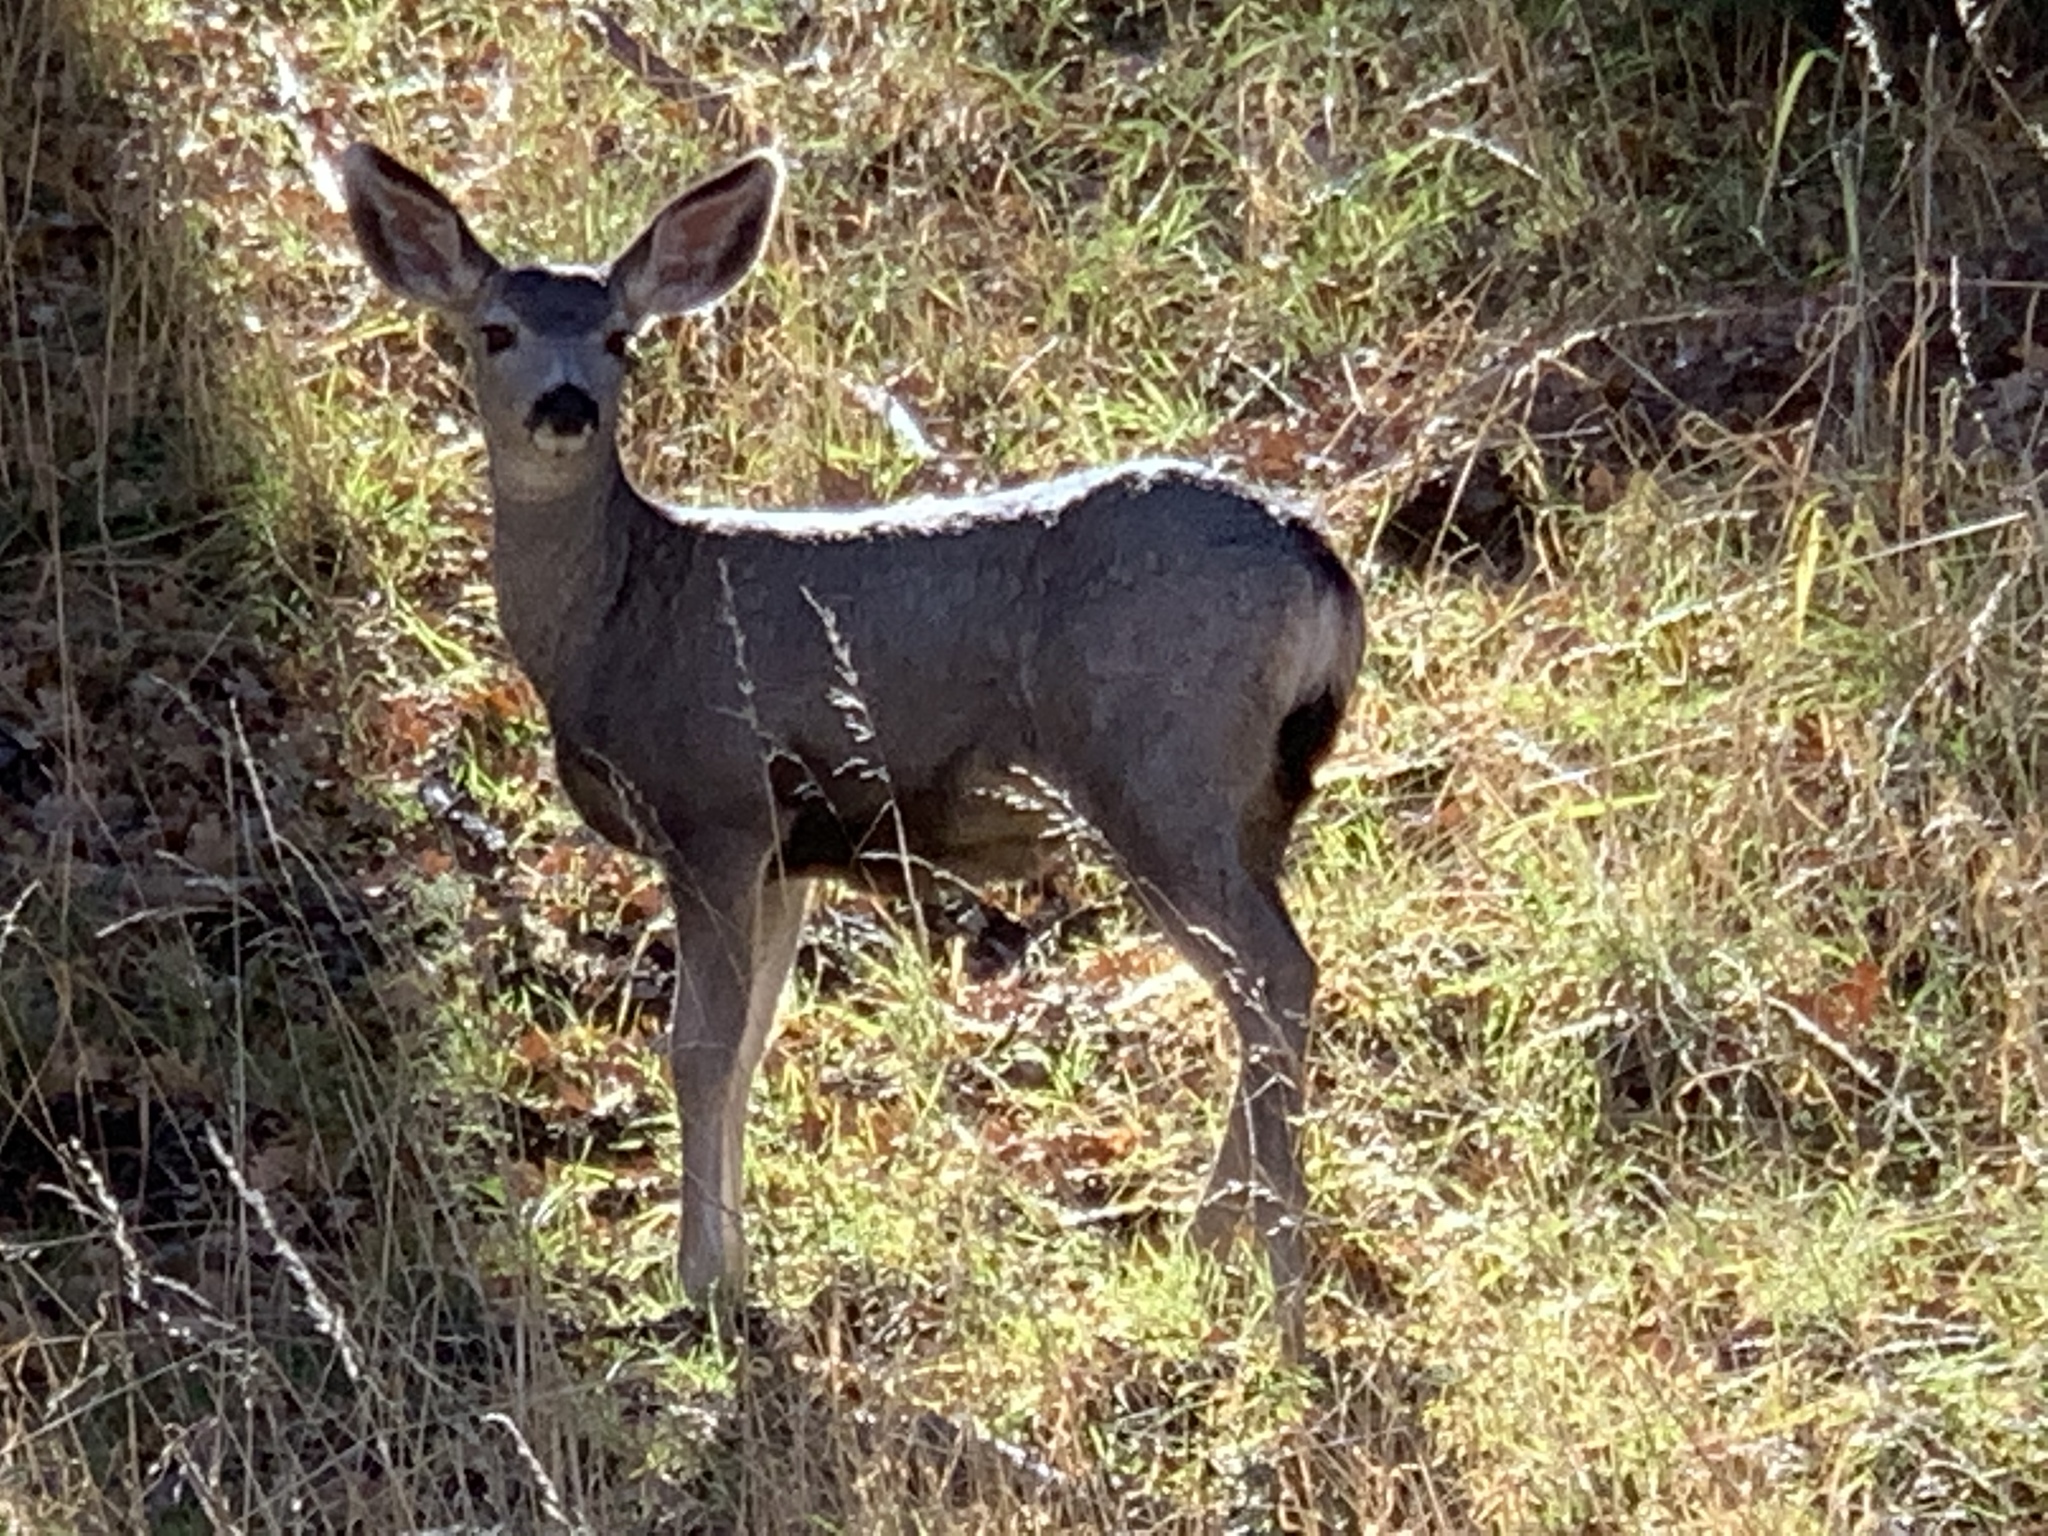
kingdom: Animalia
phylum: Chordata
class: Mammalia
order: Artiodactyla
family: Cervidae
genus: Odocoileus
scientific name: Odocoileus hemionus
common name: Mule deer
